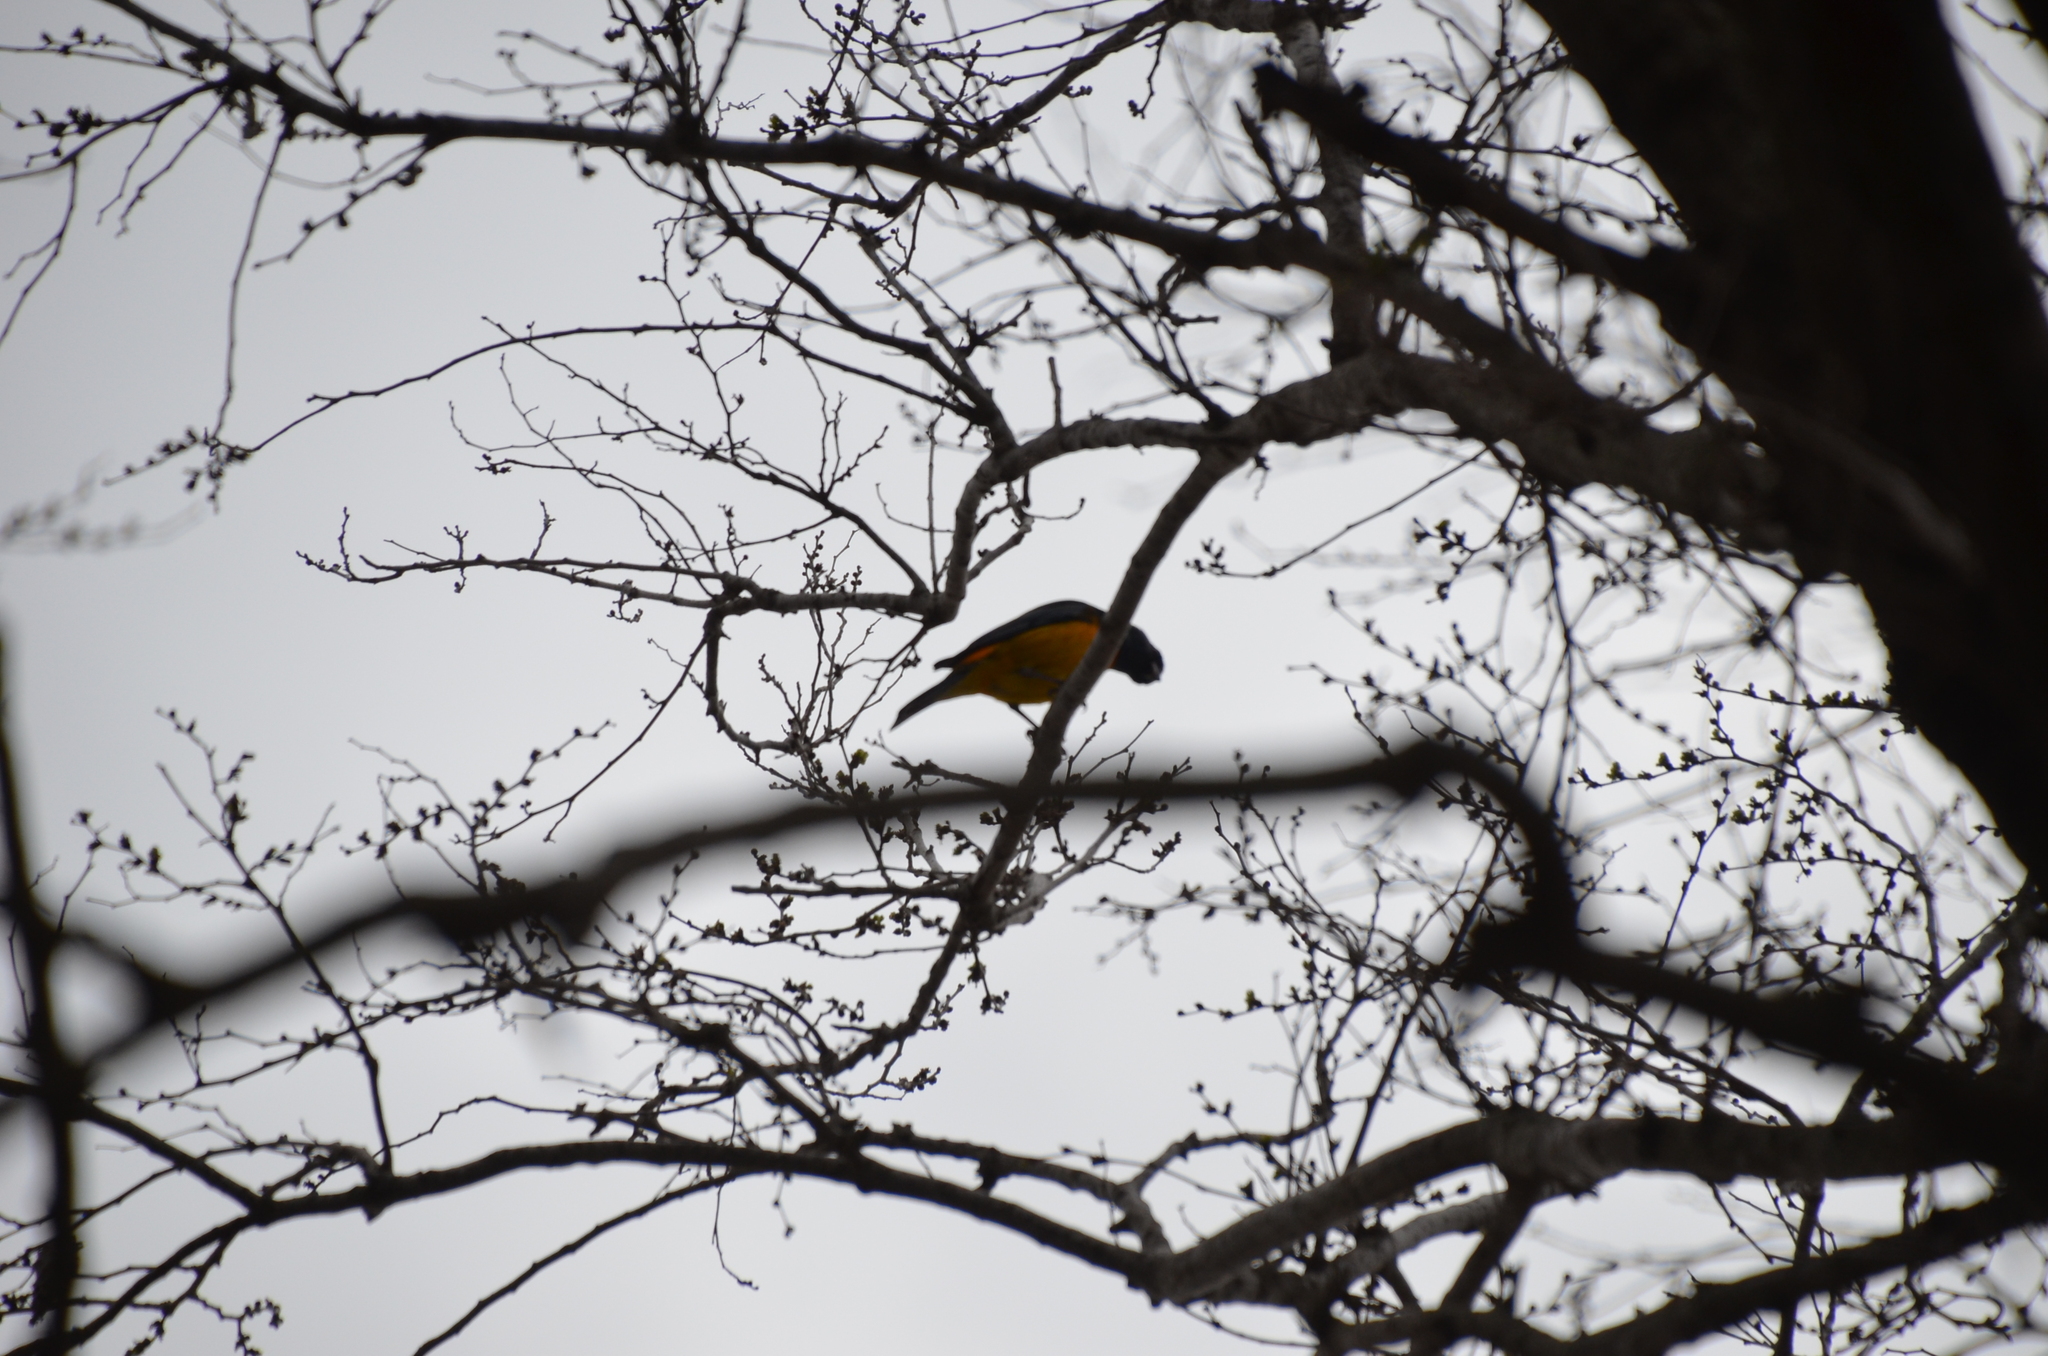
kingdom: Animalia
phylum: Chordata
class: Aves
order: Passeriformes
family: Thraupidae
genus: Rauenia
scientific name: Rauenia bonariensis
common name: Blue-and-yellow tanager
